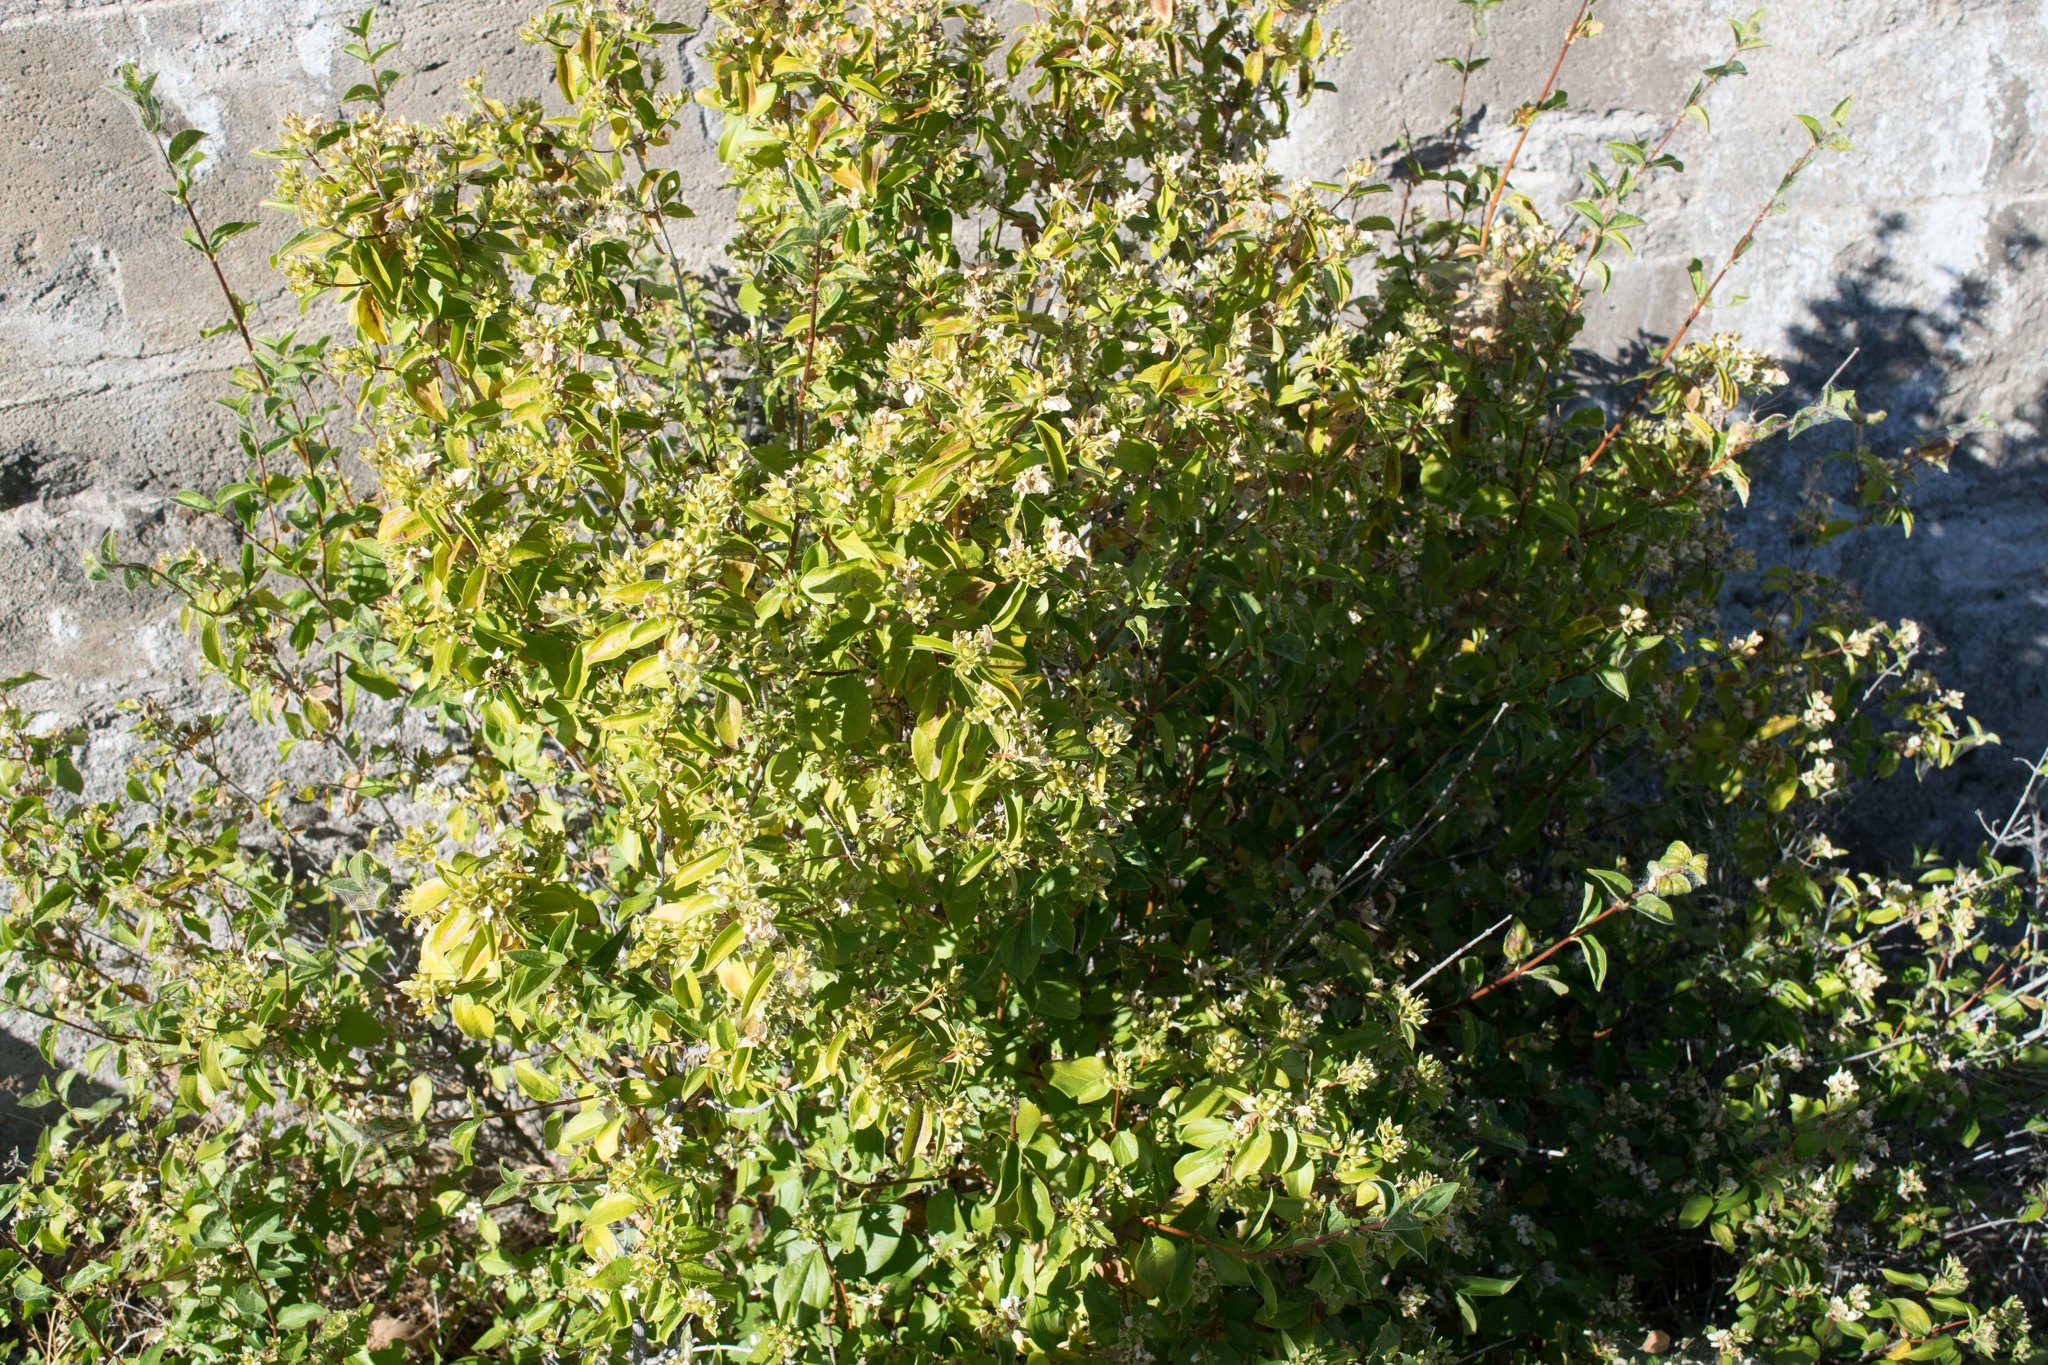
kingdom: Plantae
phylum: Tracheophyta
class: Magnoliopsida
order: Cornales
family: Hydrangeaceae
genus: Philadelphus
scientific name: Philadelphus lewisii
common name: Lewis's mock orange
